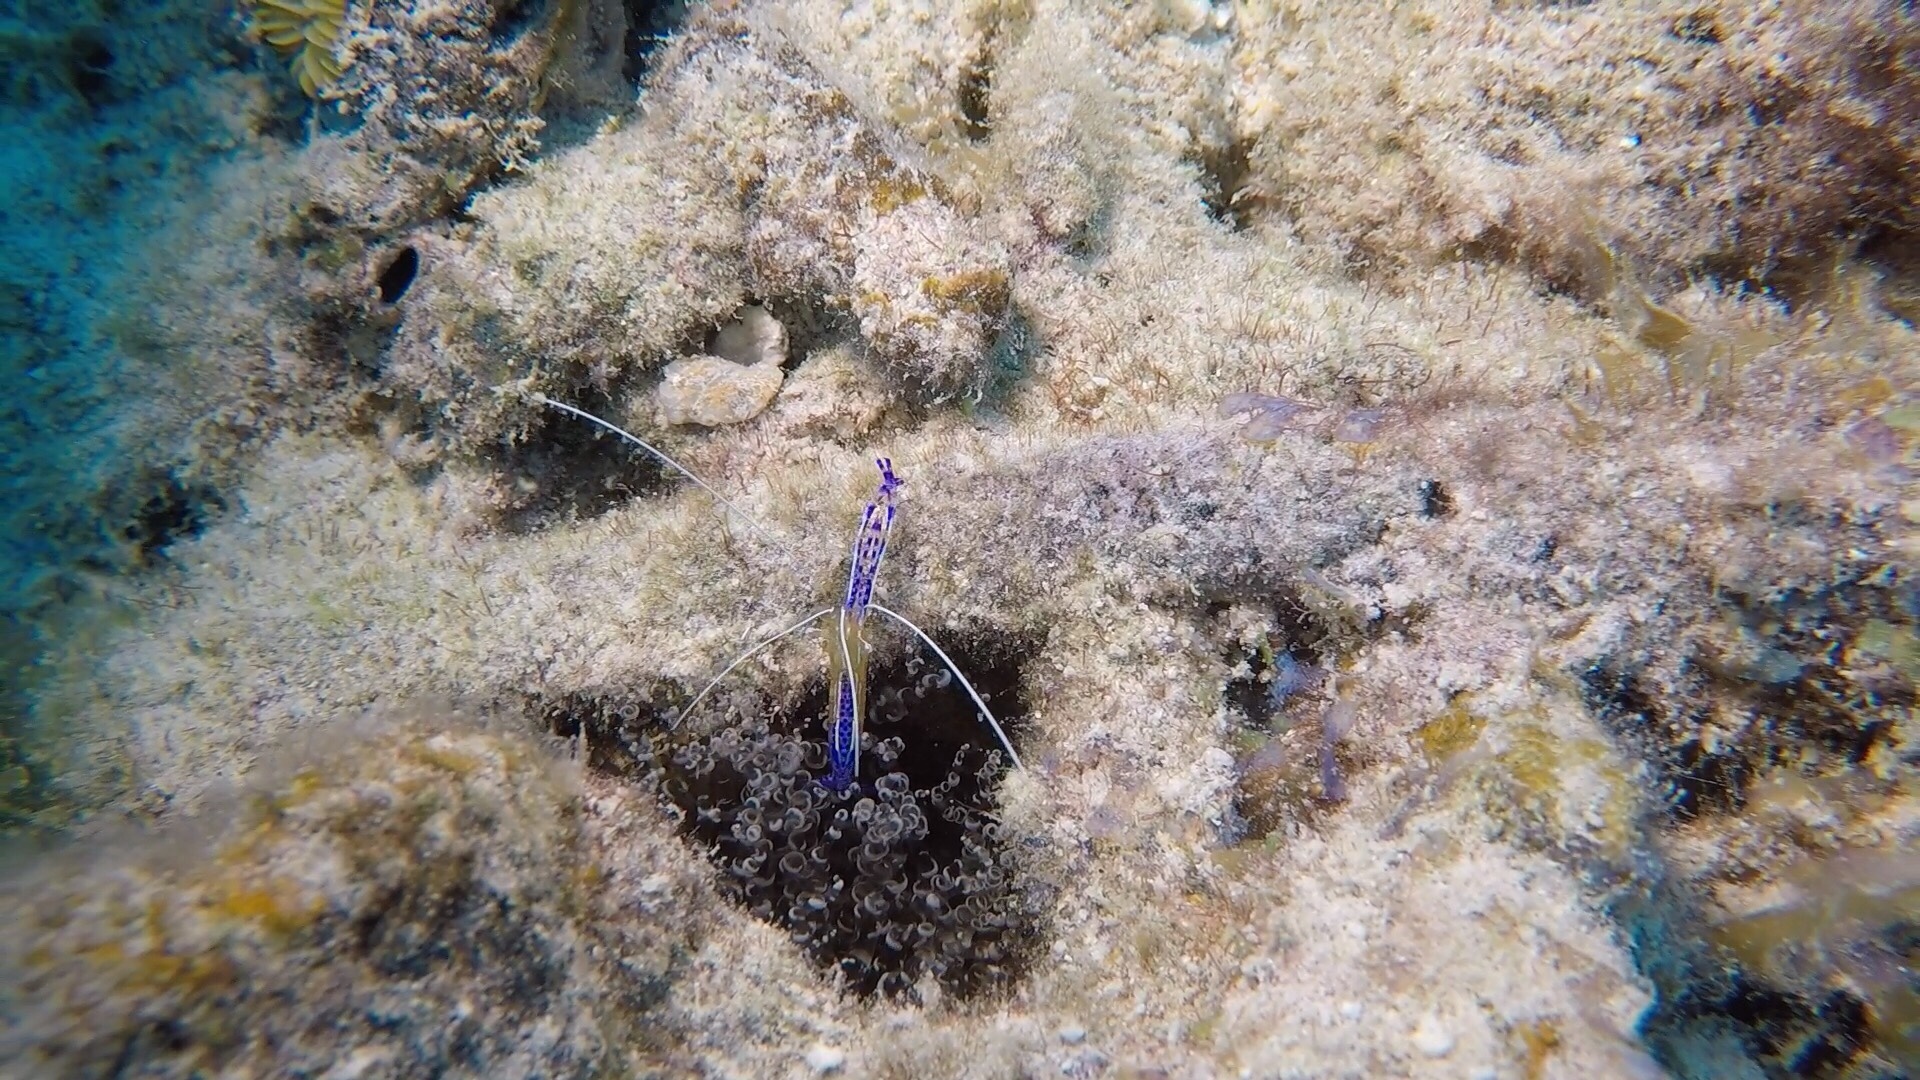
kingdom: Animalia
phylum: Arthropoda
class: Malacostraca
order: Decapoda
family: Palaemonidae
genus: Ancylomenes
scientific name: Ancylomenes pedersoni
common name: Pederson's cleaning shrimp
